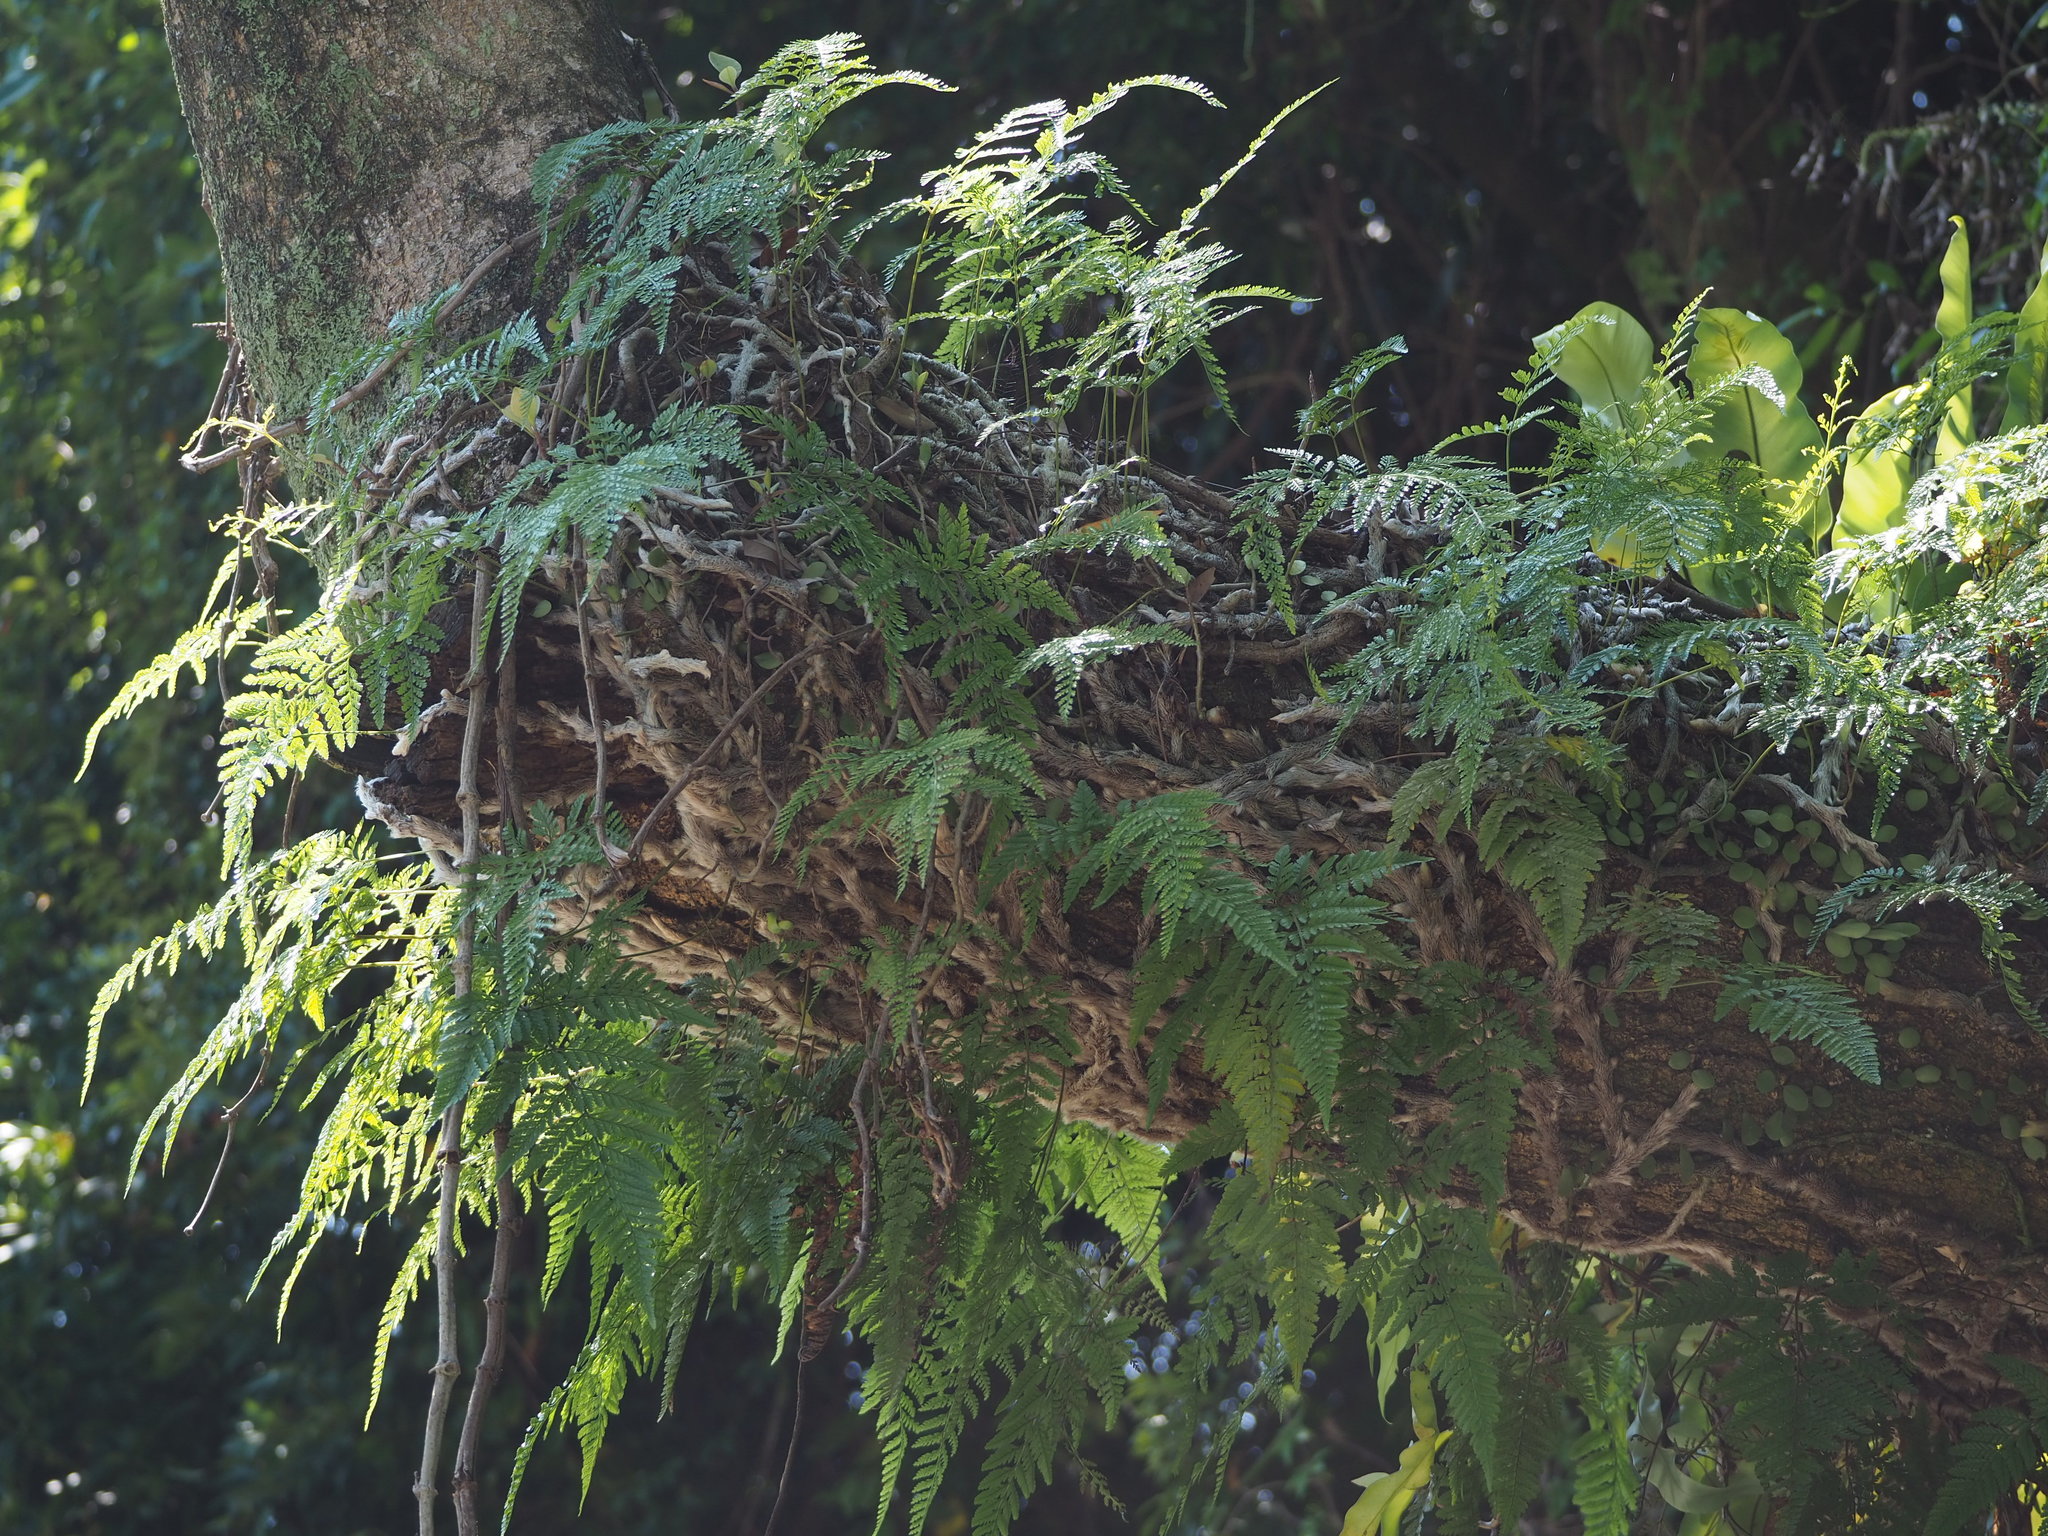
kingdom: Plantae
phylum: Tracheophyta
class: Polypodiopsida
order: Polypodiales
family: Davalliaceae
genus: Davallia
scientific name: Davallia griffithiana
